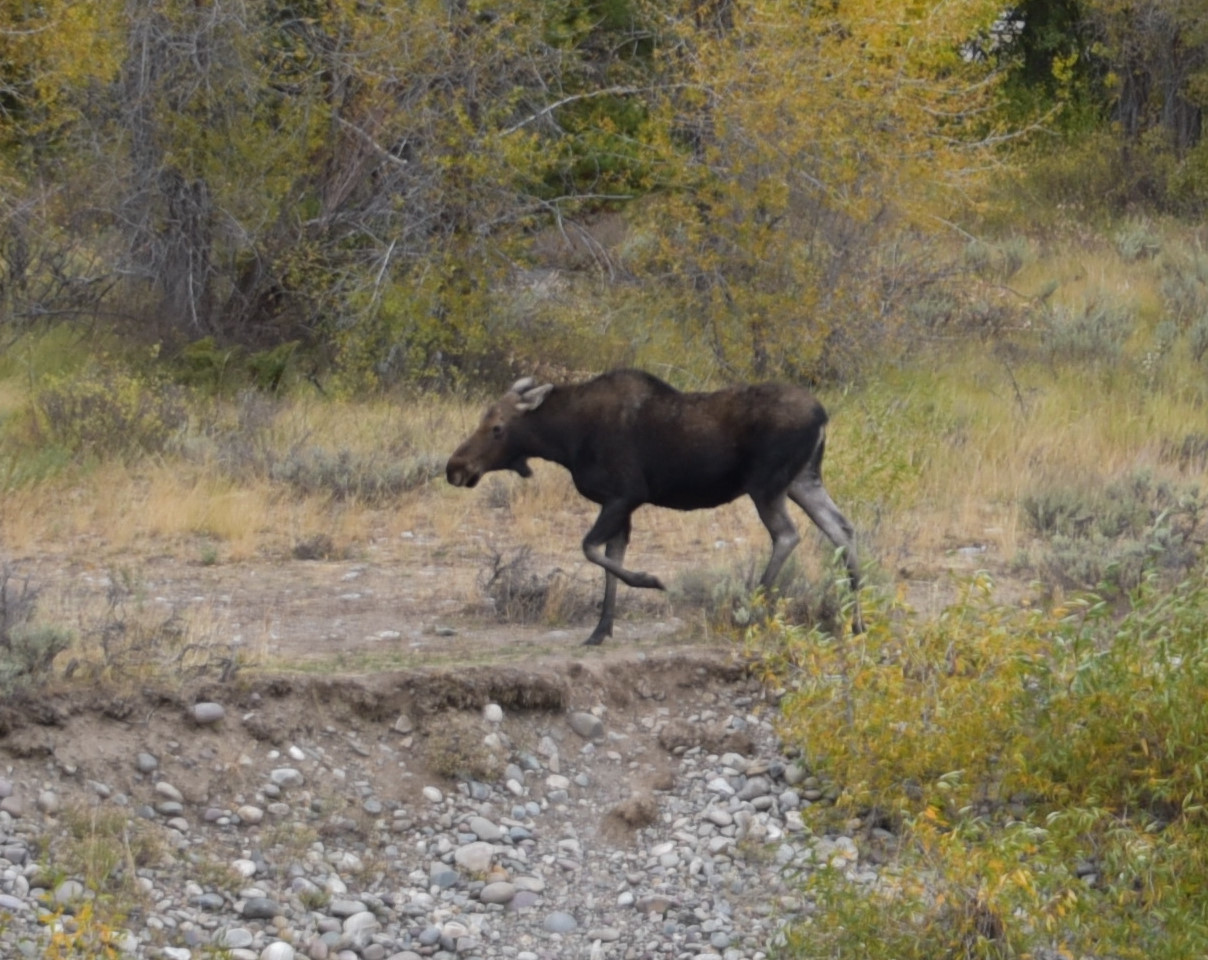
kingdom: Animalia
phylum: Chordata
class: Mammalia
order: Artiodactyla
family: Cervidae
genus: Alces
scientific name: Alces alces
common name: Moose
